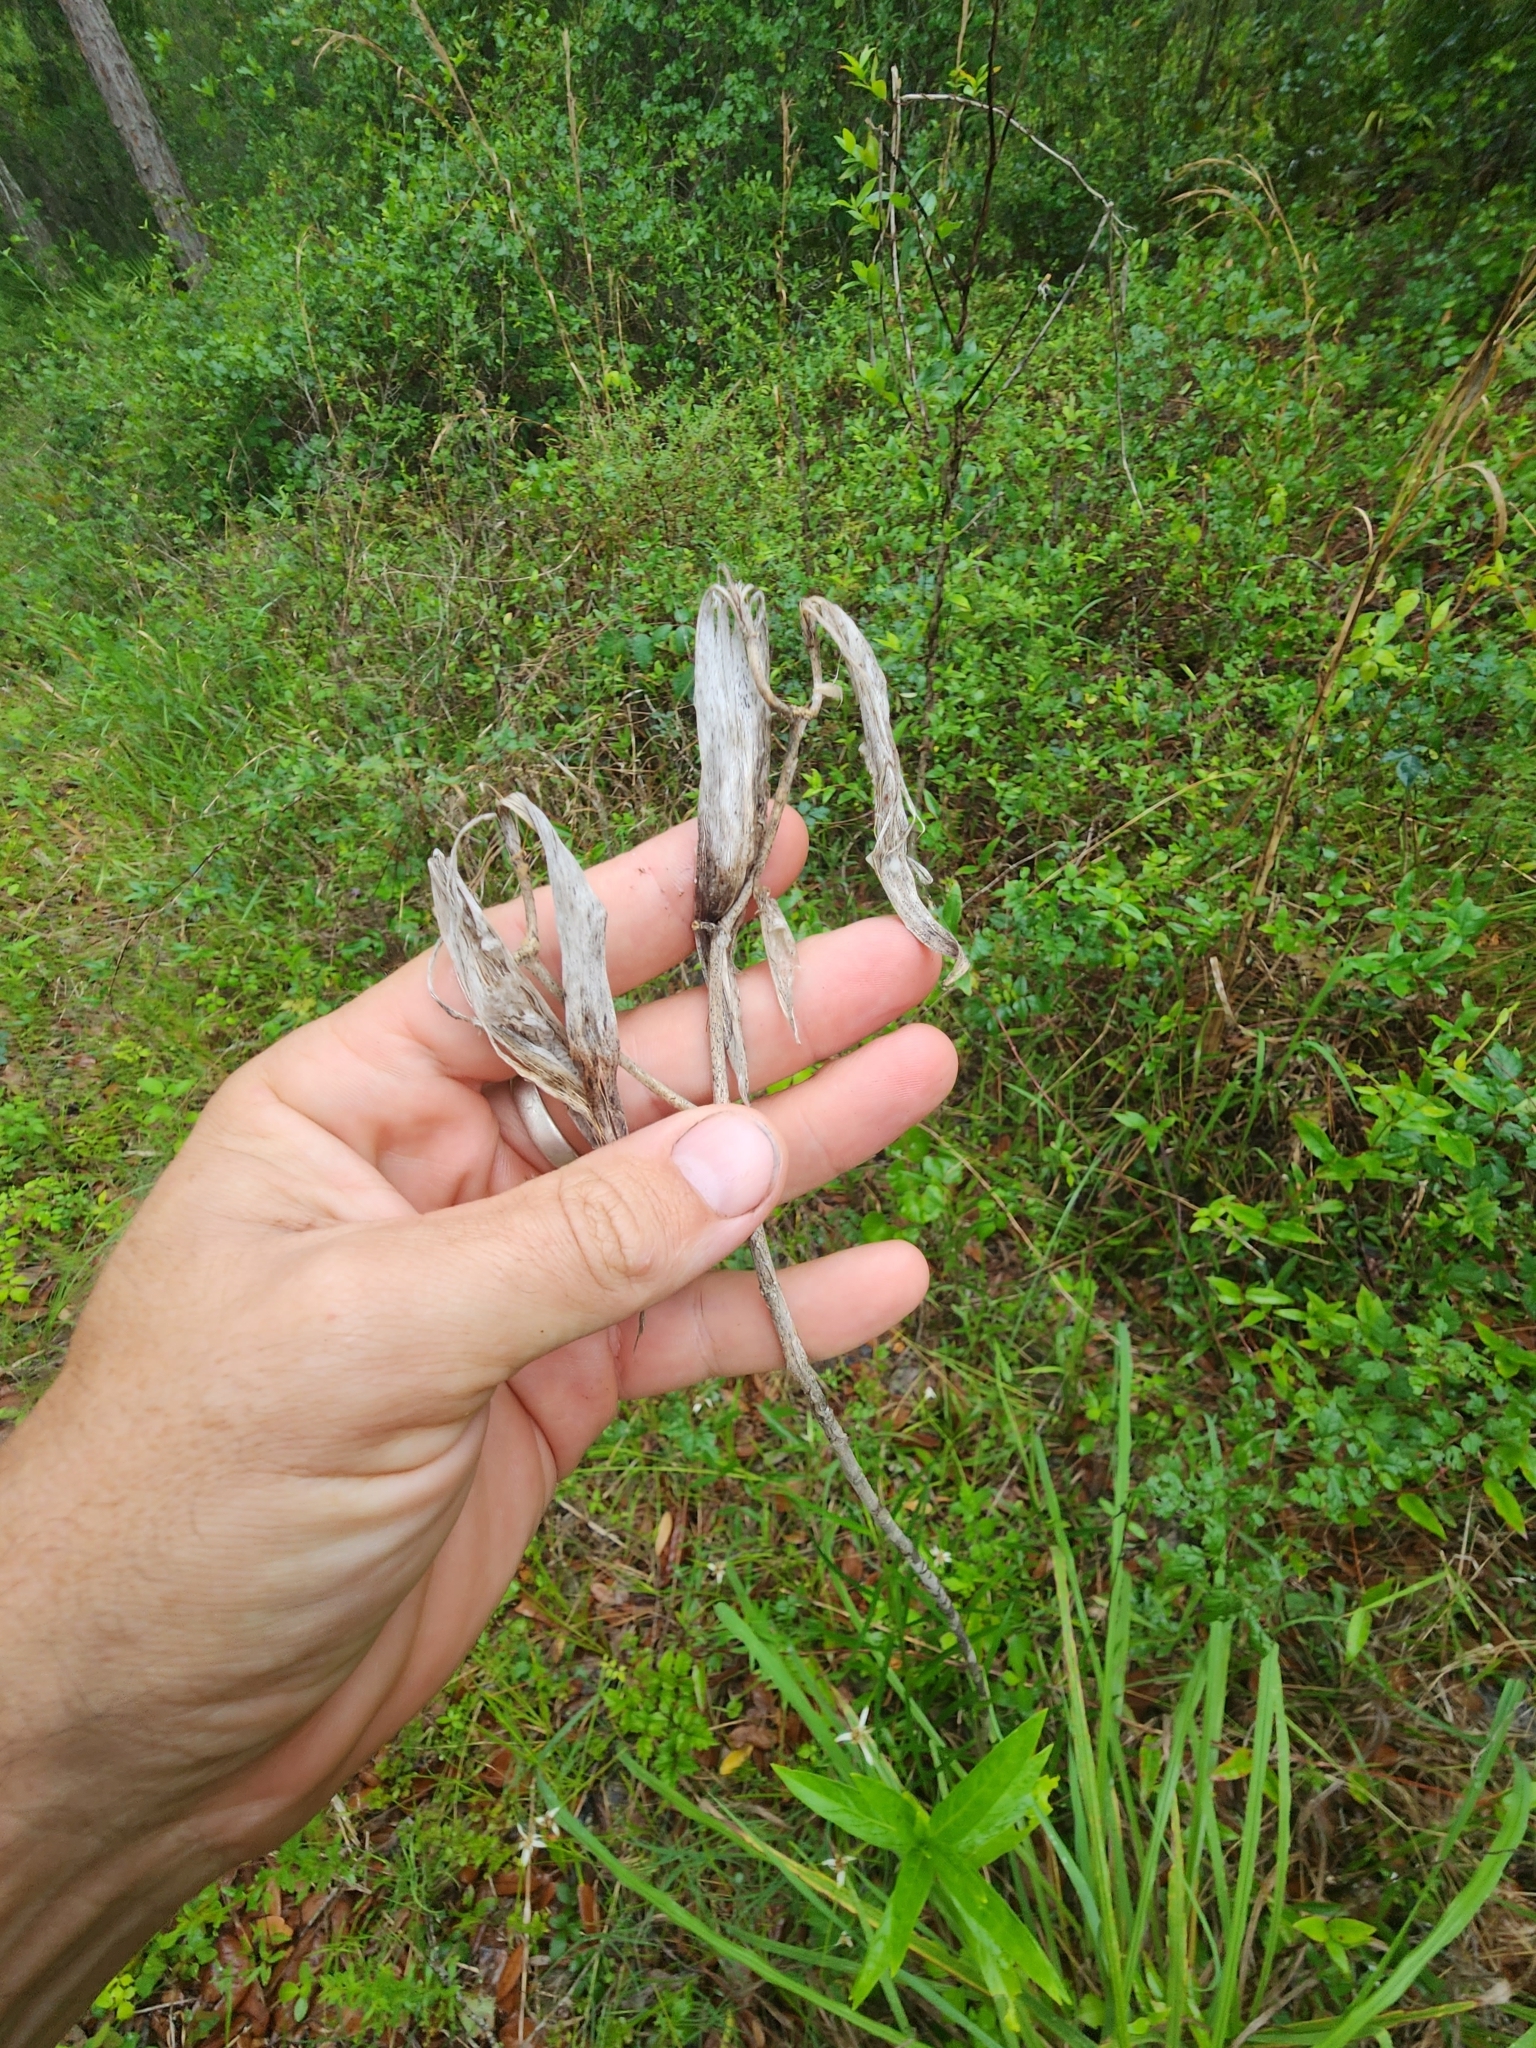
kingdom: Plantae
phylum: Tracheophyta
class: Magnoliopsida
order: Gentianales
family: Apocynaceae
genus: Asclepias
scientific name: Asclepias incarnata
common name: Swamp milkweed
